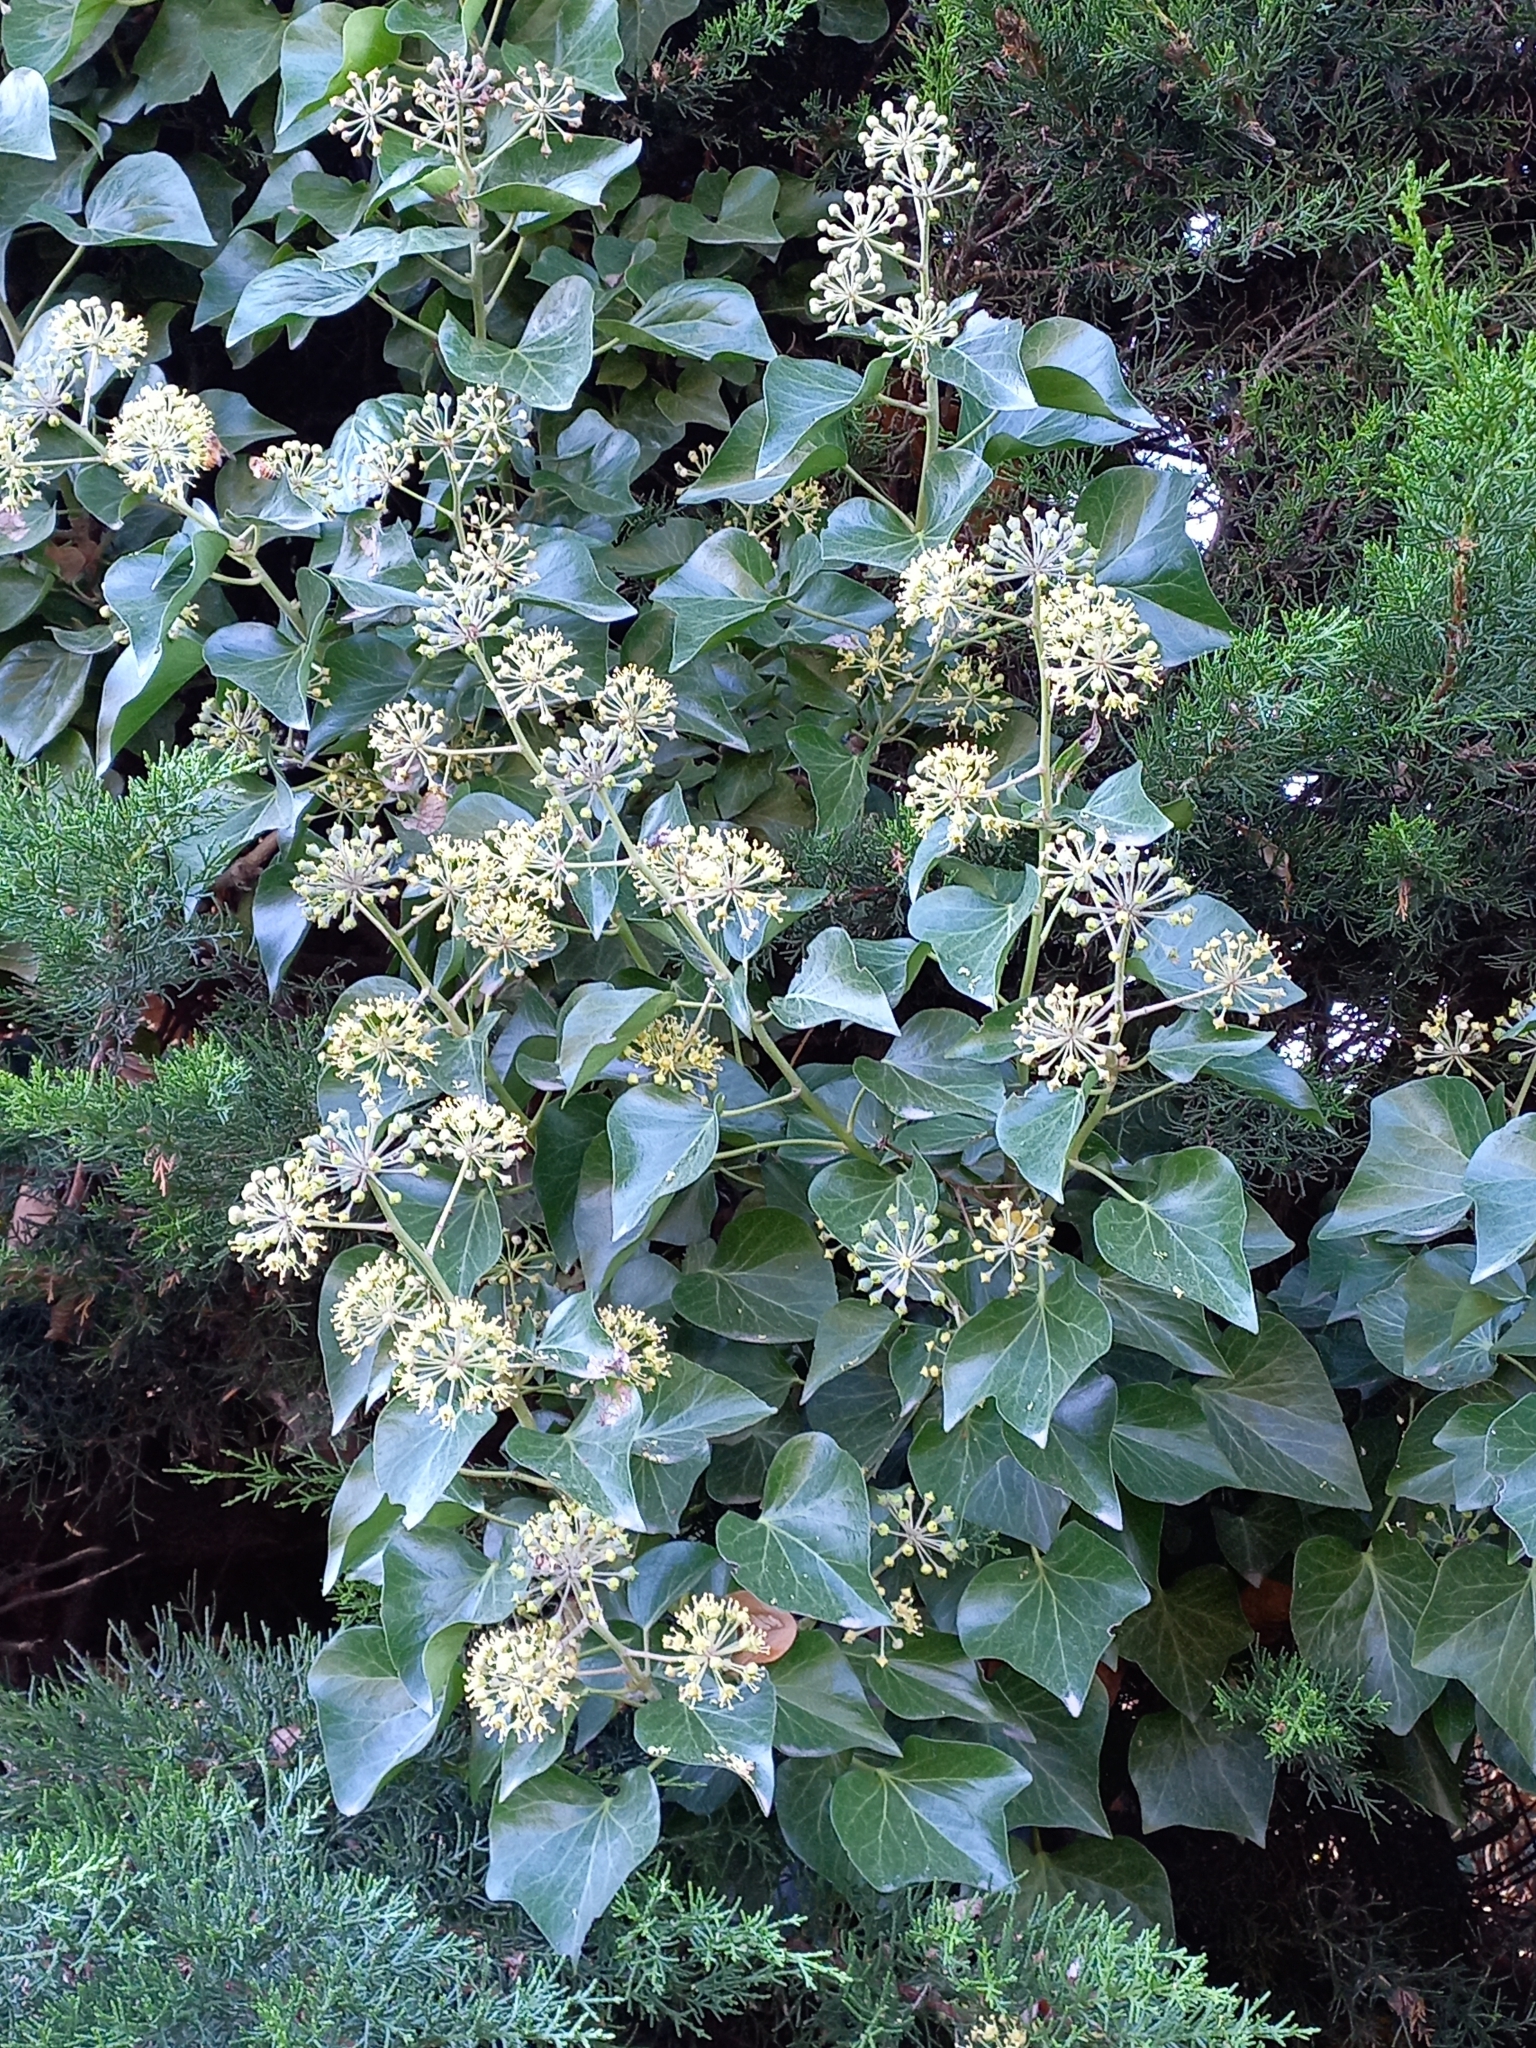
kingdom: Plantae
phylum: Tracheophyta
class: Magnoliopsida
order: Apiales
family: Araliaceae
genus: Hedera
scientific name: Hedera helix
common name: Ivy
